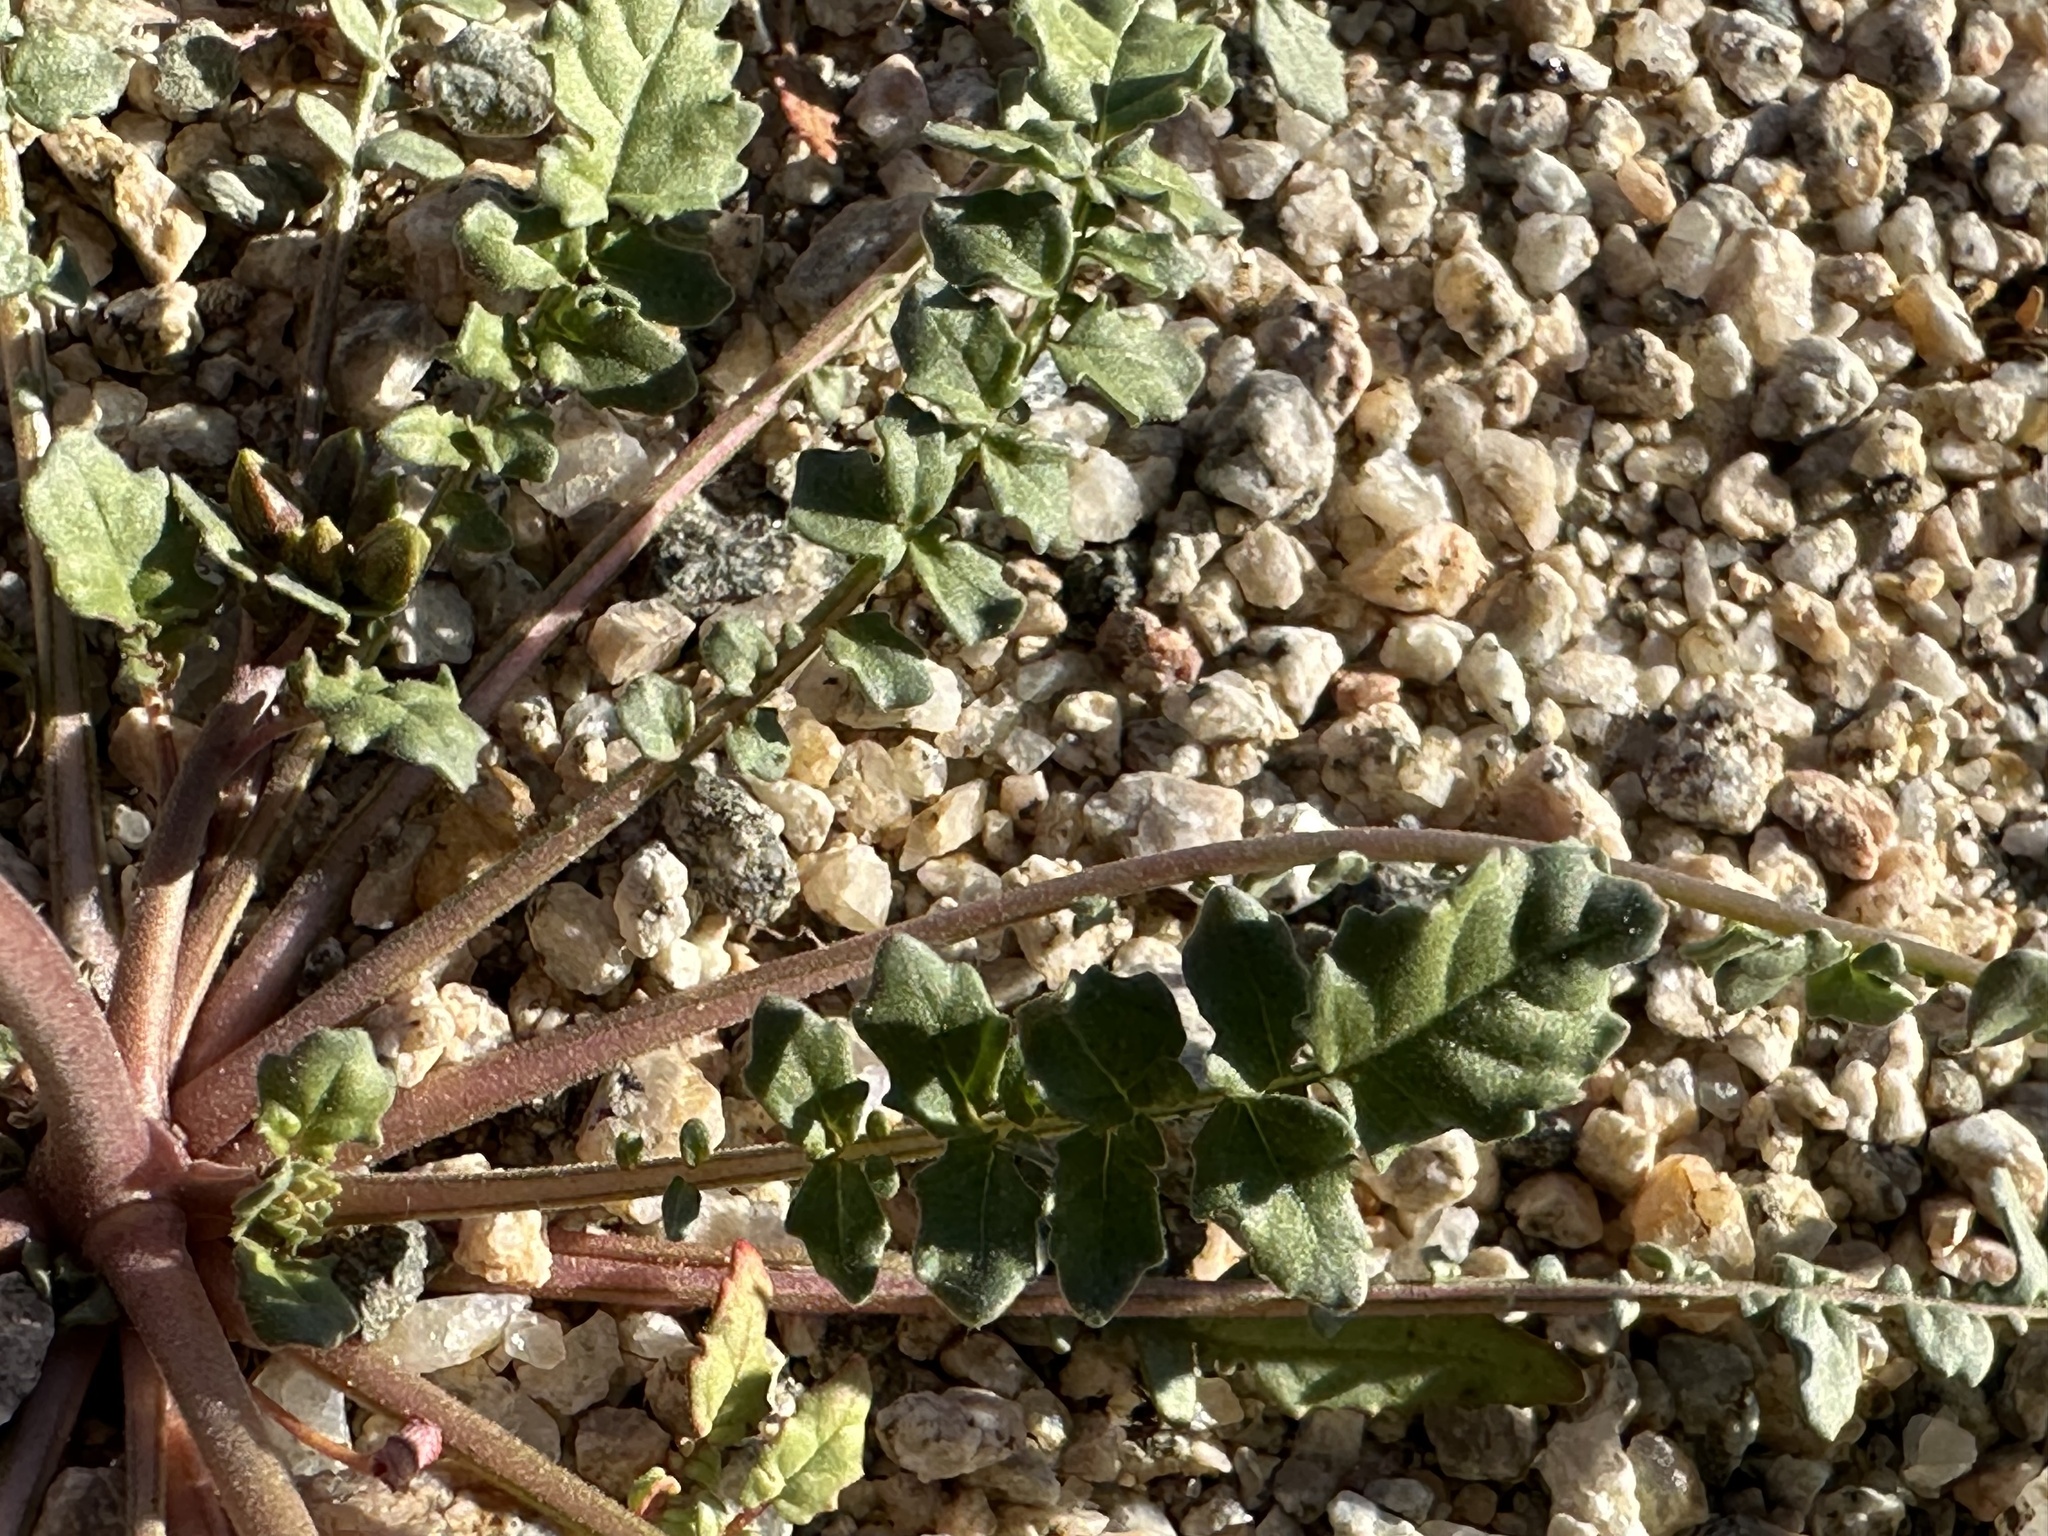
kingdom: Plantae
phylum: Tracheophyta
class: Magnoliopsida
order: Myrtales
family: Onagraceae
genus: Chylismia
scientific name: Chylismia claviformis
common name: Browneyes
